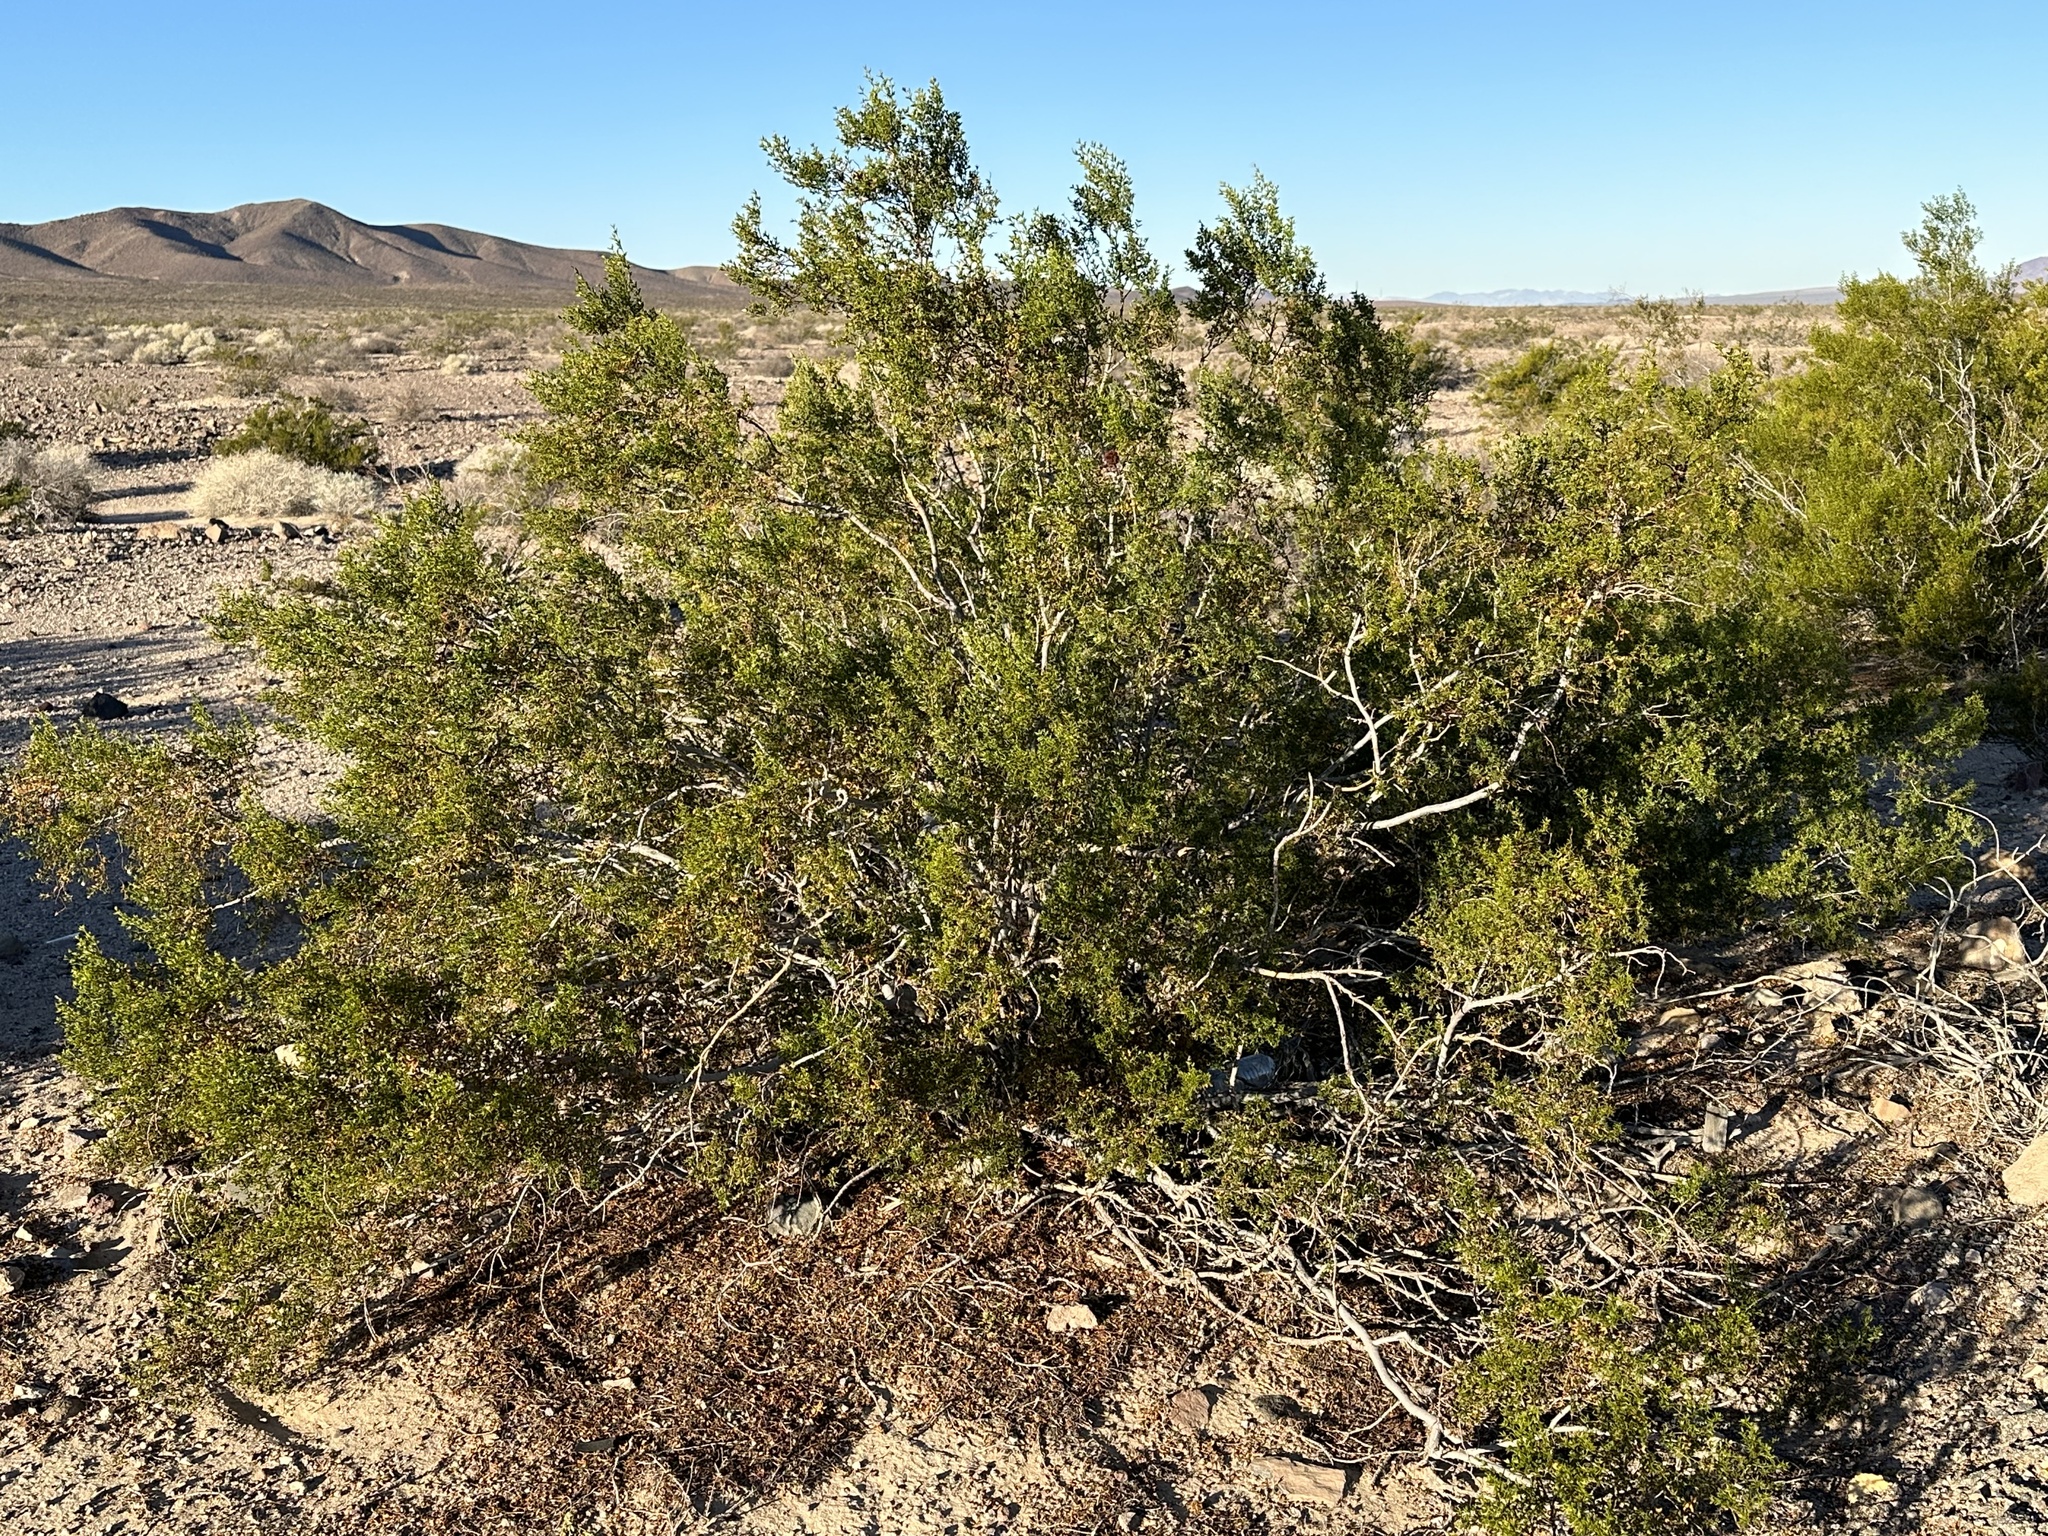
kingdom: Plantae
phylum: Tracheophyta
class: Magnoliopsida
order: Zygophyllales
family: Zygophyllaceae
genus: Larrea
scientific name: Larrea tridentata
